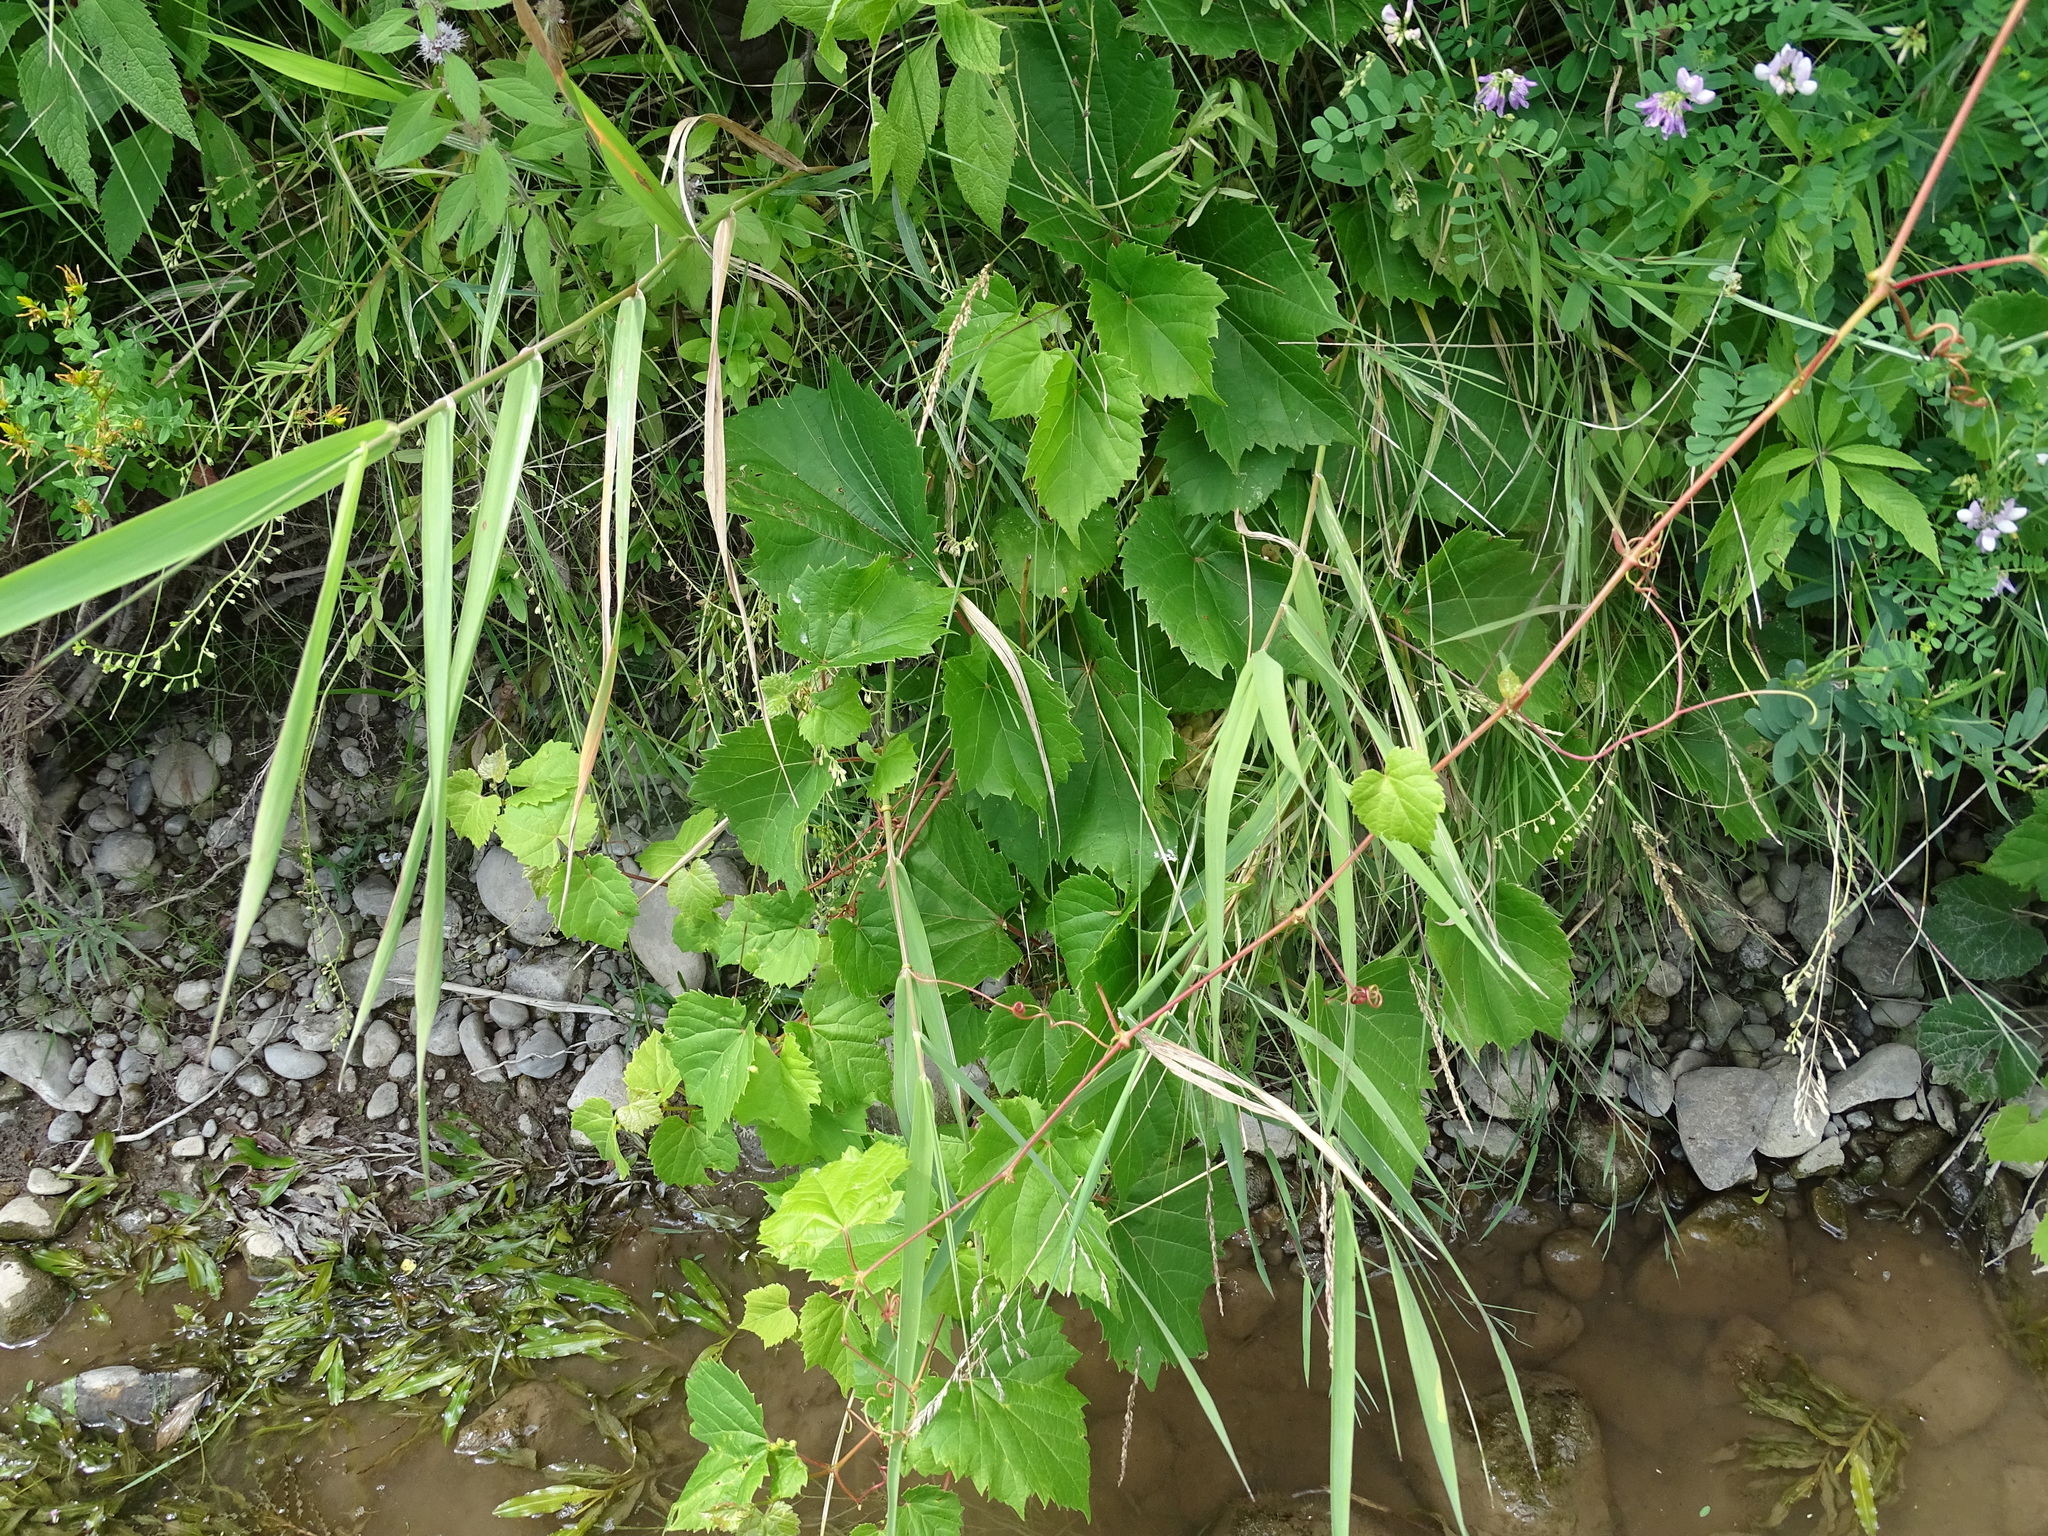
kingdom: Plantae
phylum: Tracheophyta
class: Magnoliopsida
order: Vitales
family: Vitaceae
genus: Vitis
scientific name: Vitis riparia
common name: Frost grape
